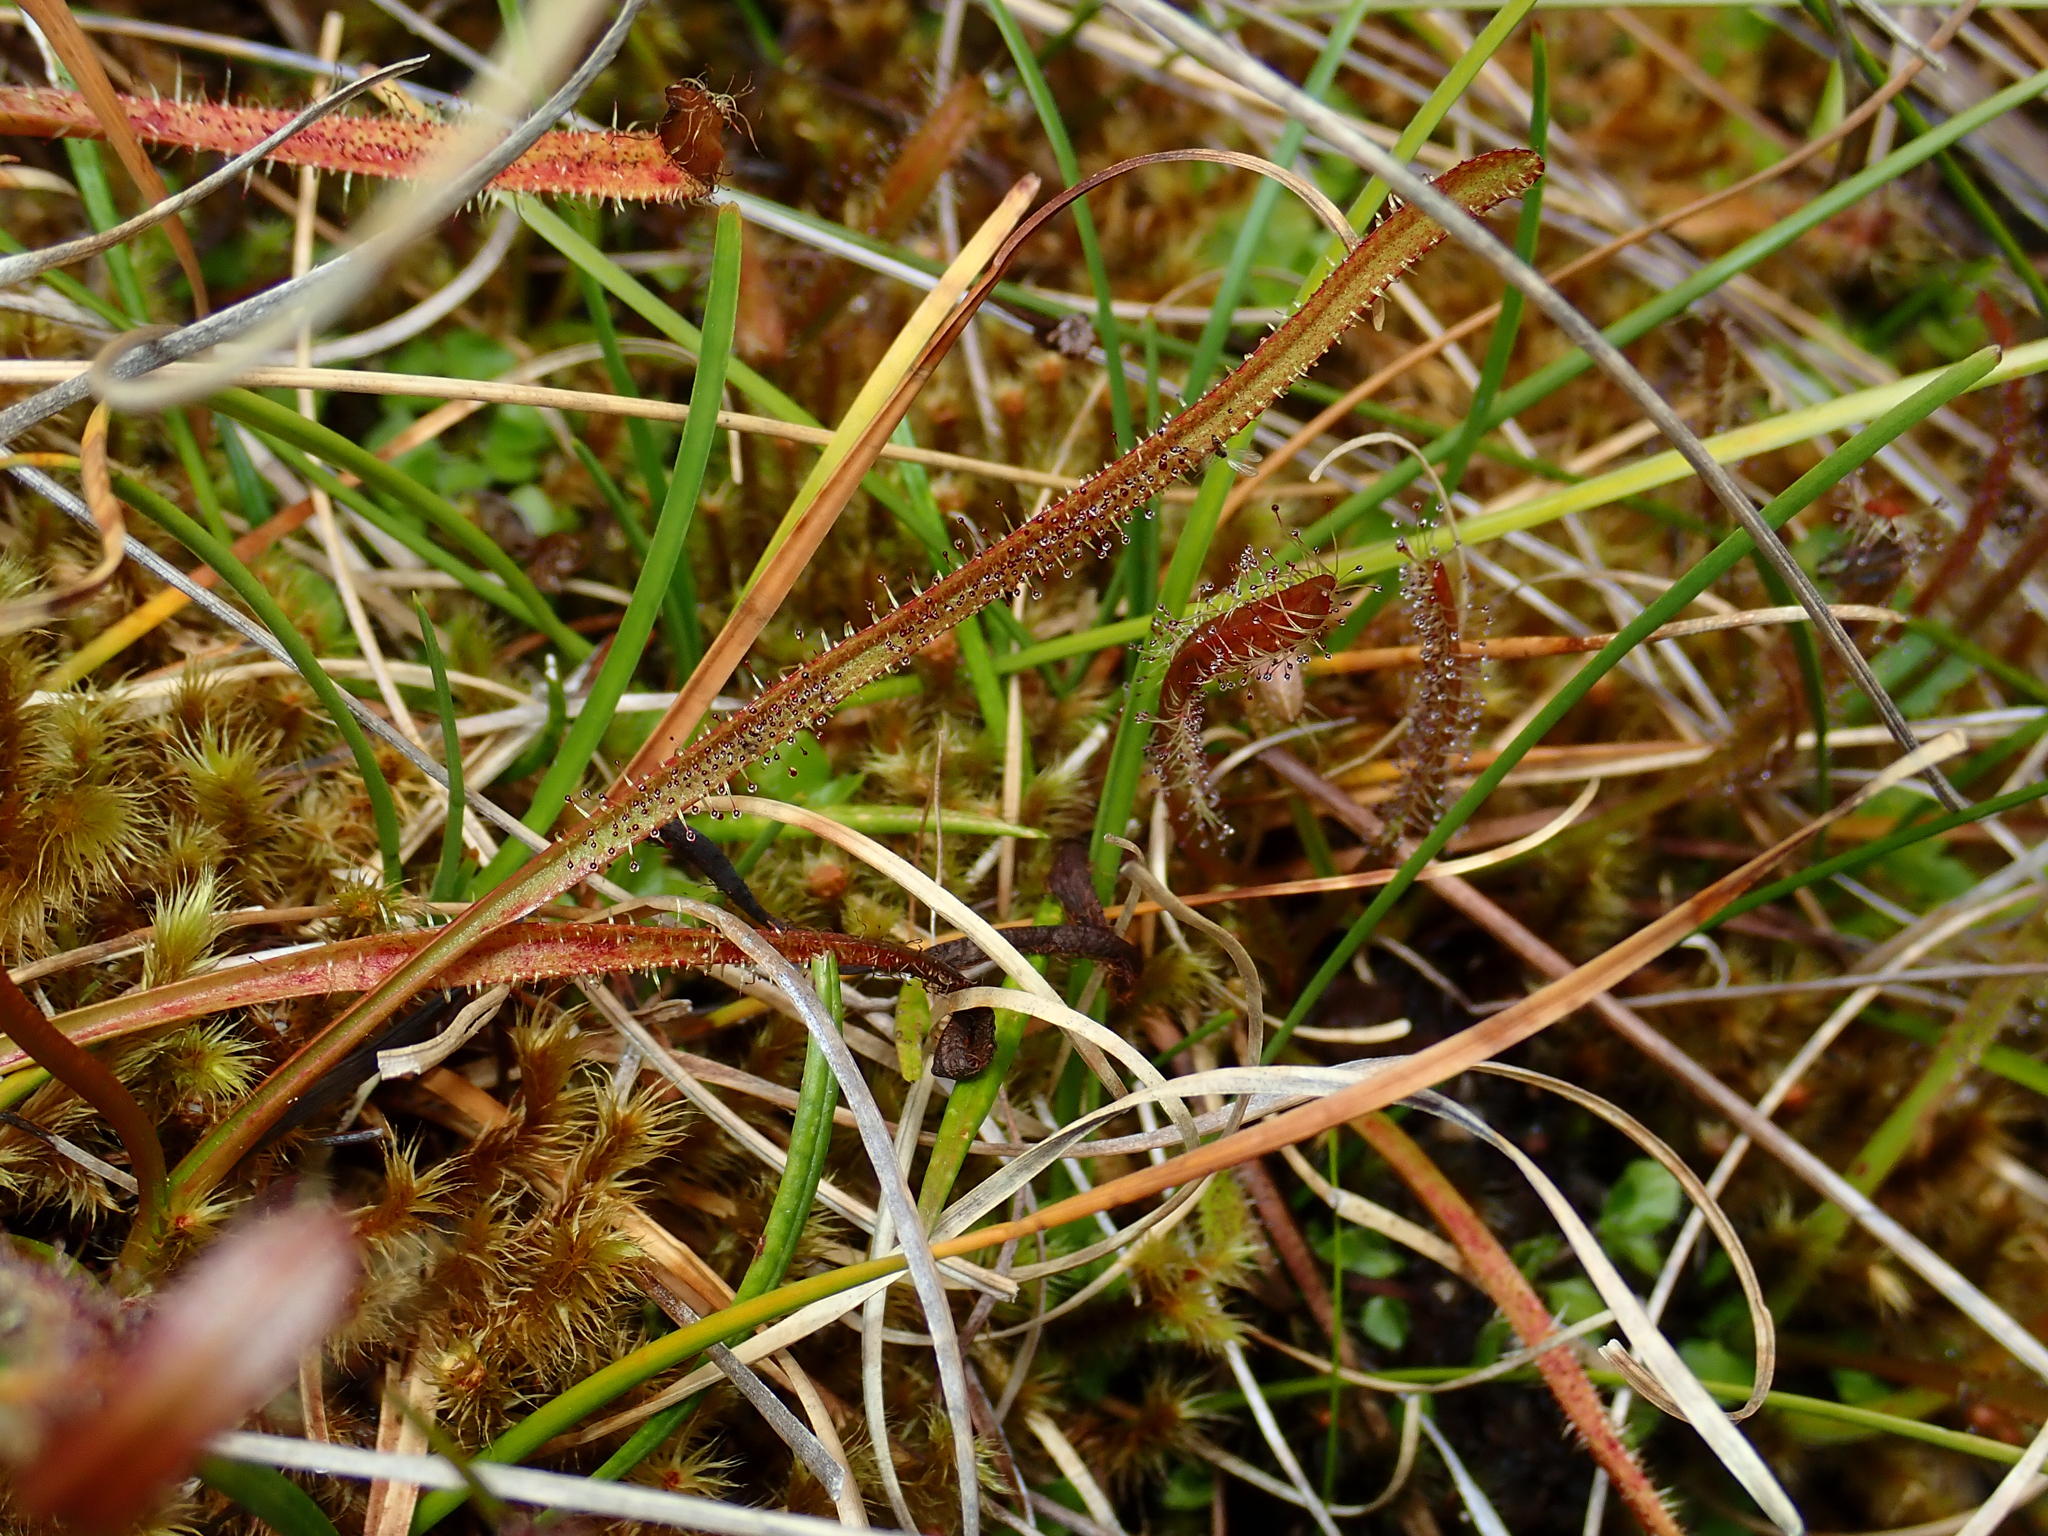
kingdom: Plantae
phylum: Tracheophyta
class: Magnoliopsida
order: Caryophyllales
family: Droseraceae
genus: Drosera
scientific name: Drosera arcturi
